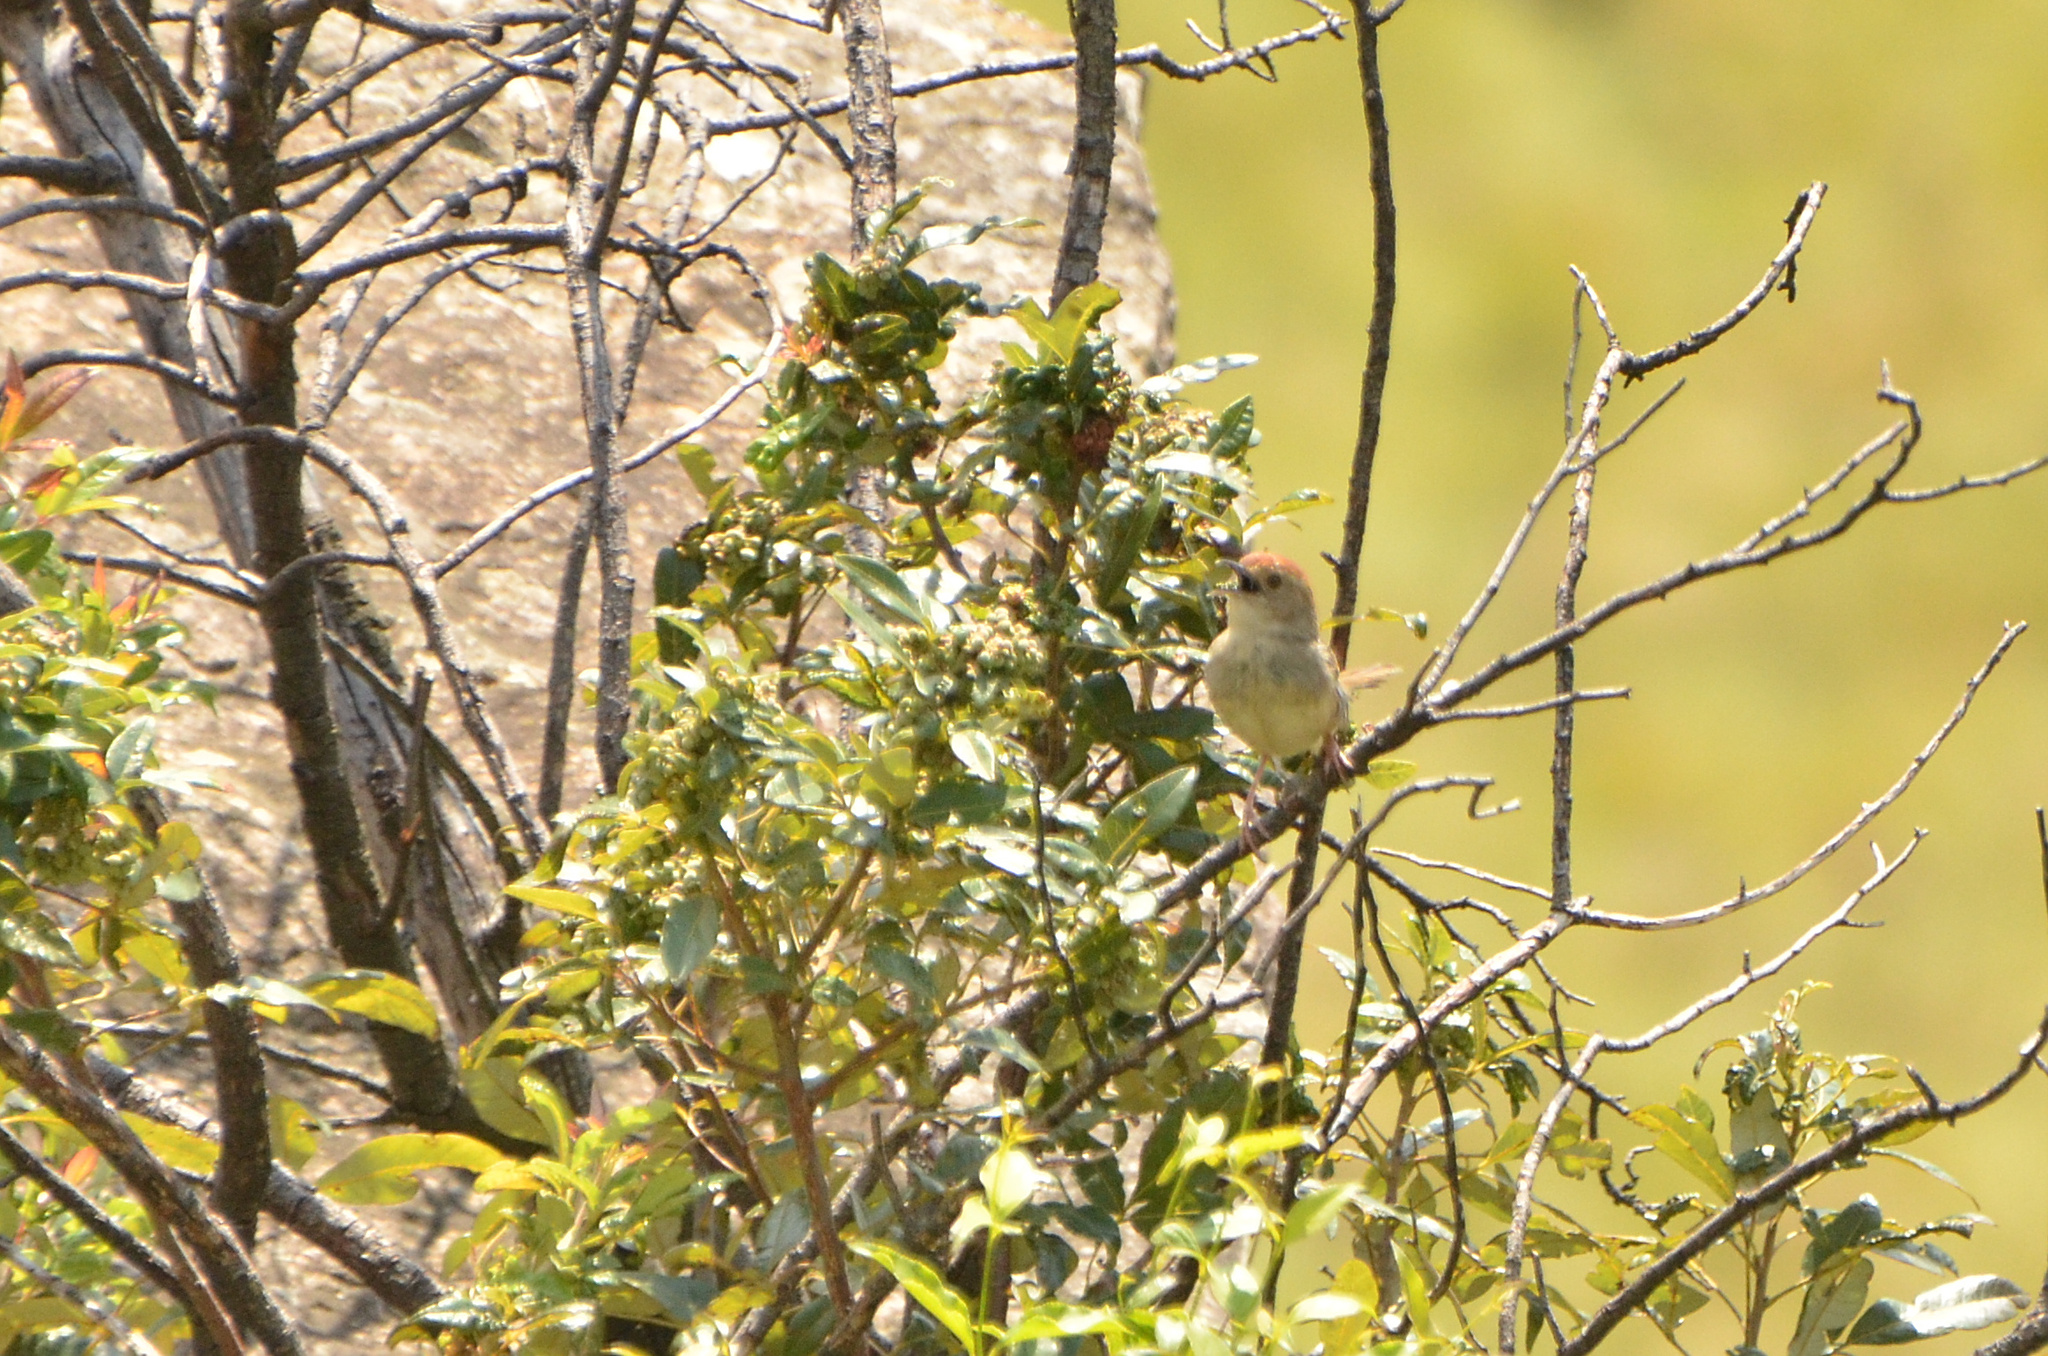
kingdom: Animalia
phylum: Chordata
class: Aves
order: Passeriformes
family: Cisticolidae
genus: Cisticola
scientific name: Cisticola lais
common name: Wailing cisticola
